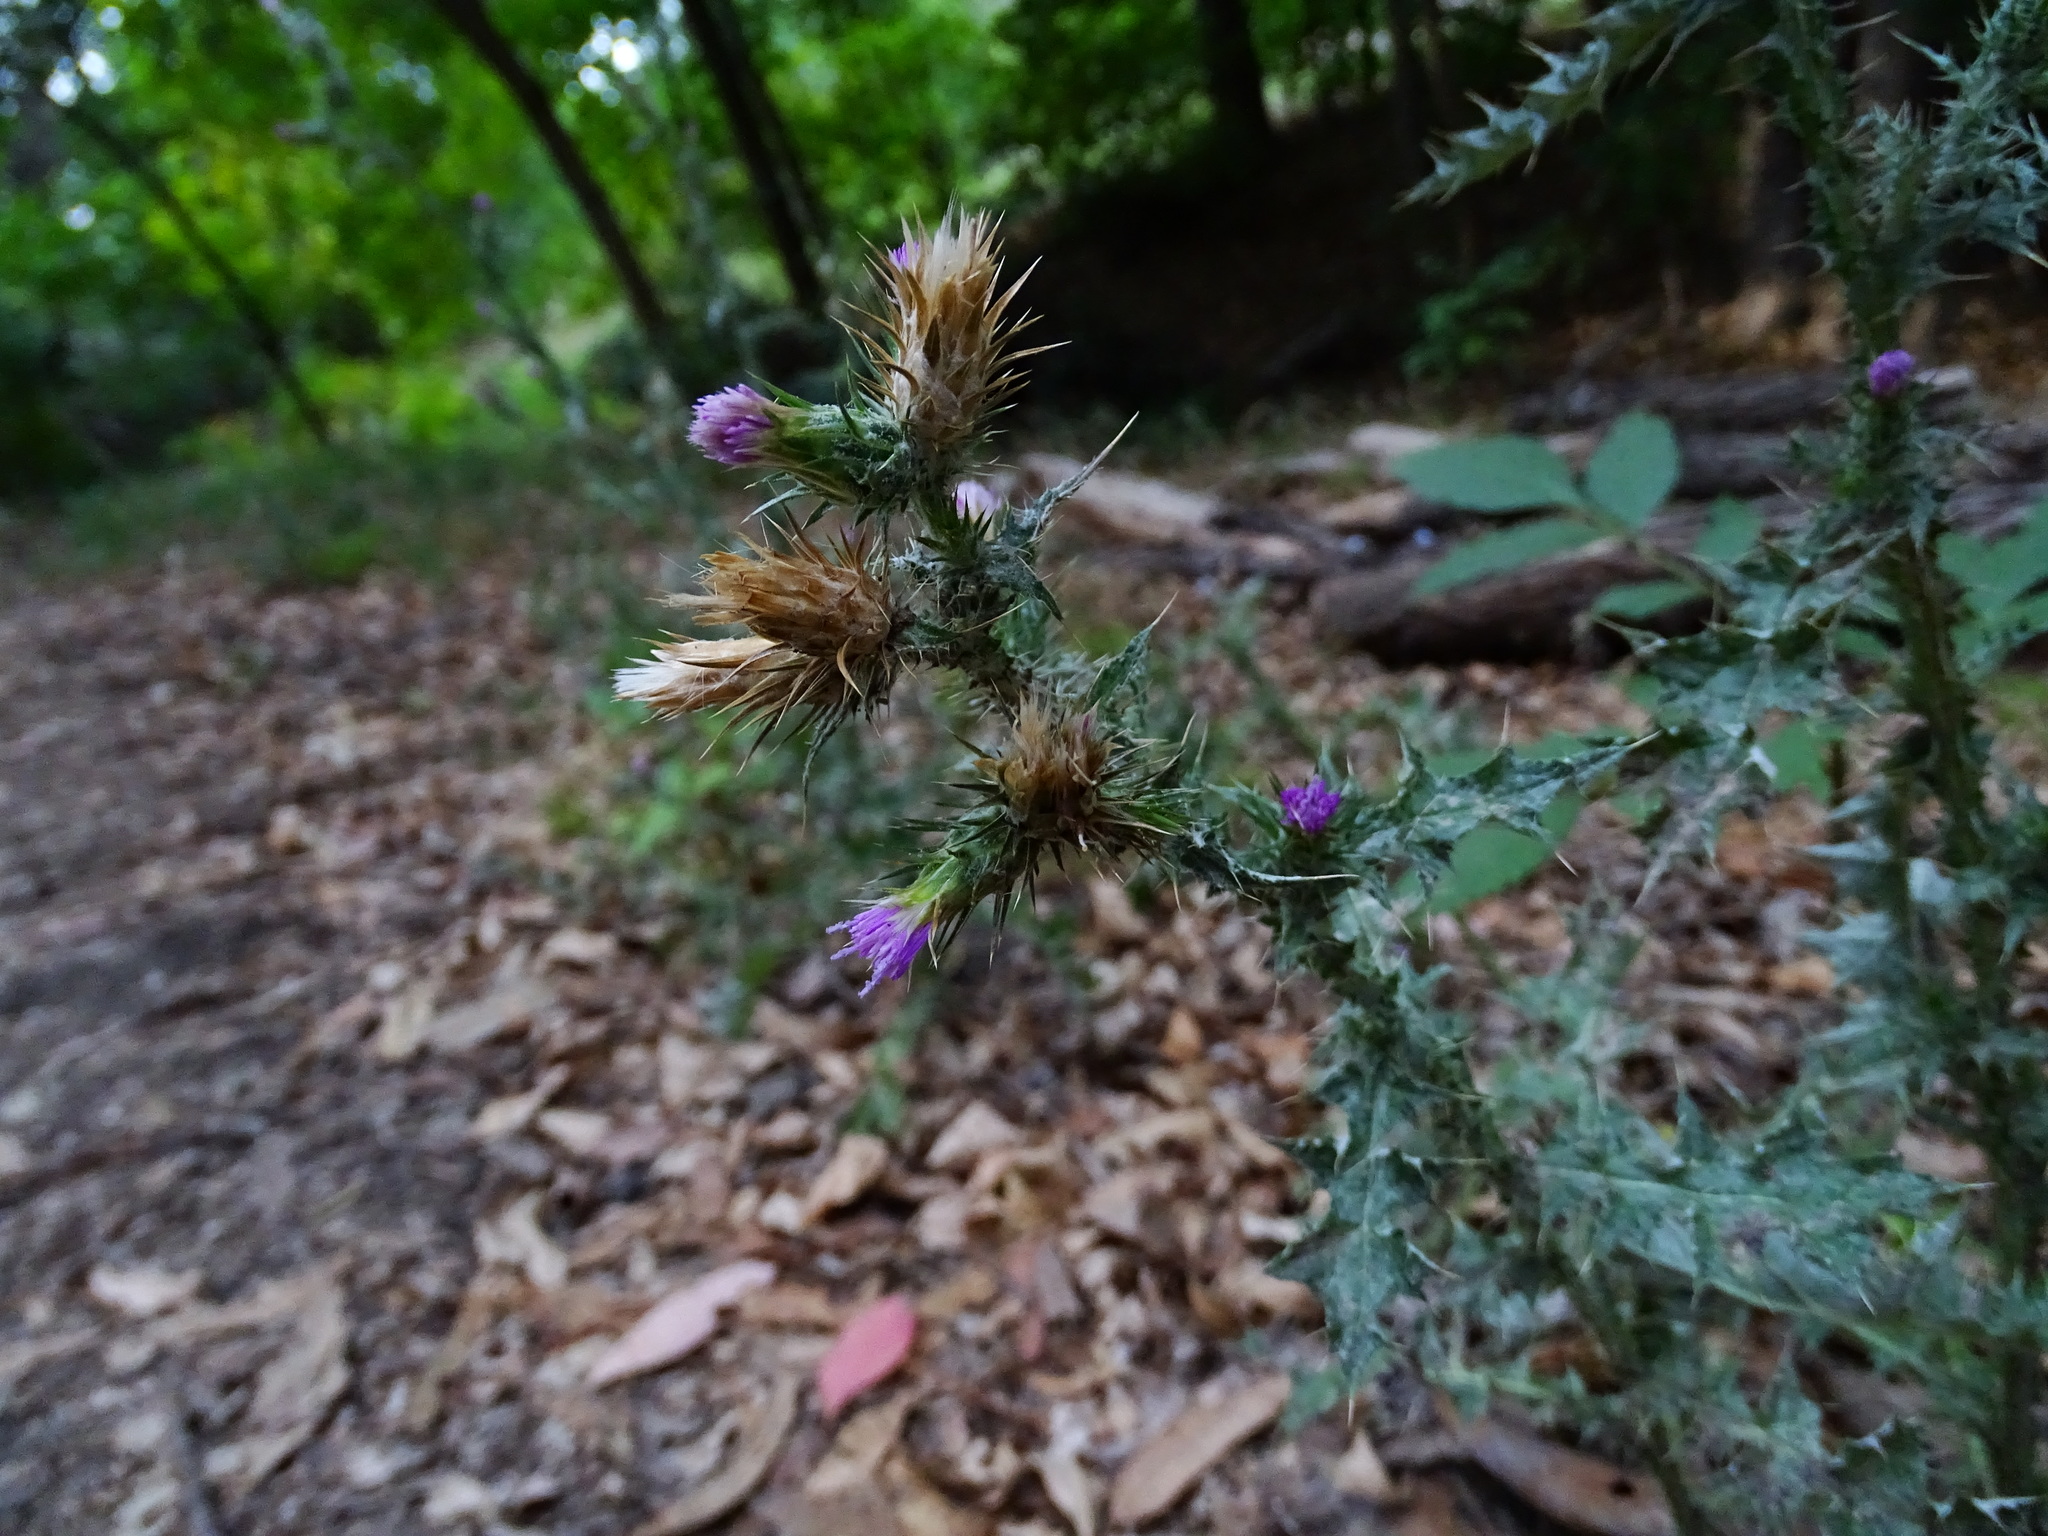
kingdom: Plantae
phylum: Tracheophyta
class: Magnoliopsida
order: Asterales
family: Asteraceae
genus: Carduus
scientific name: Carduus pycnocephalus
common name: Plymouth thistle
